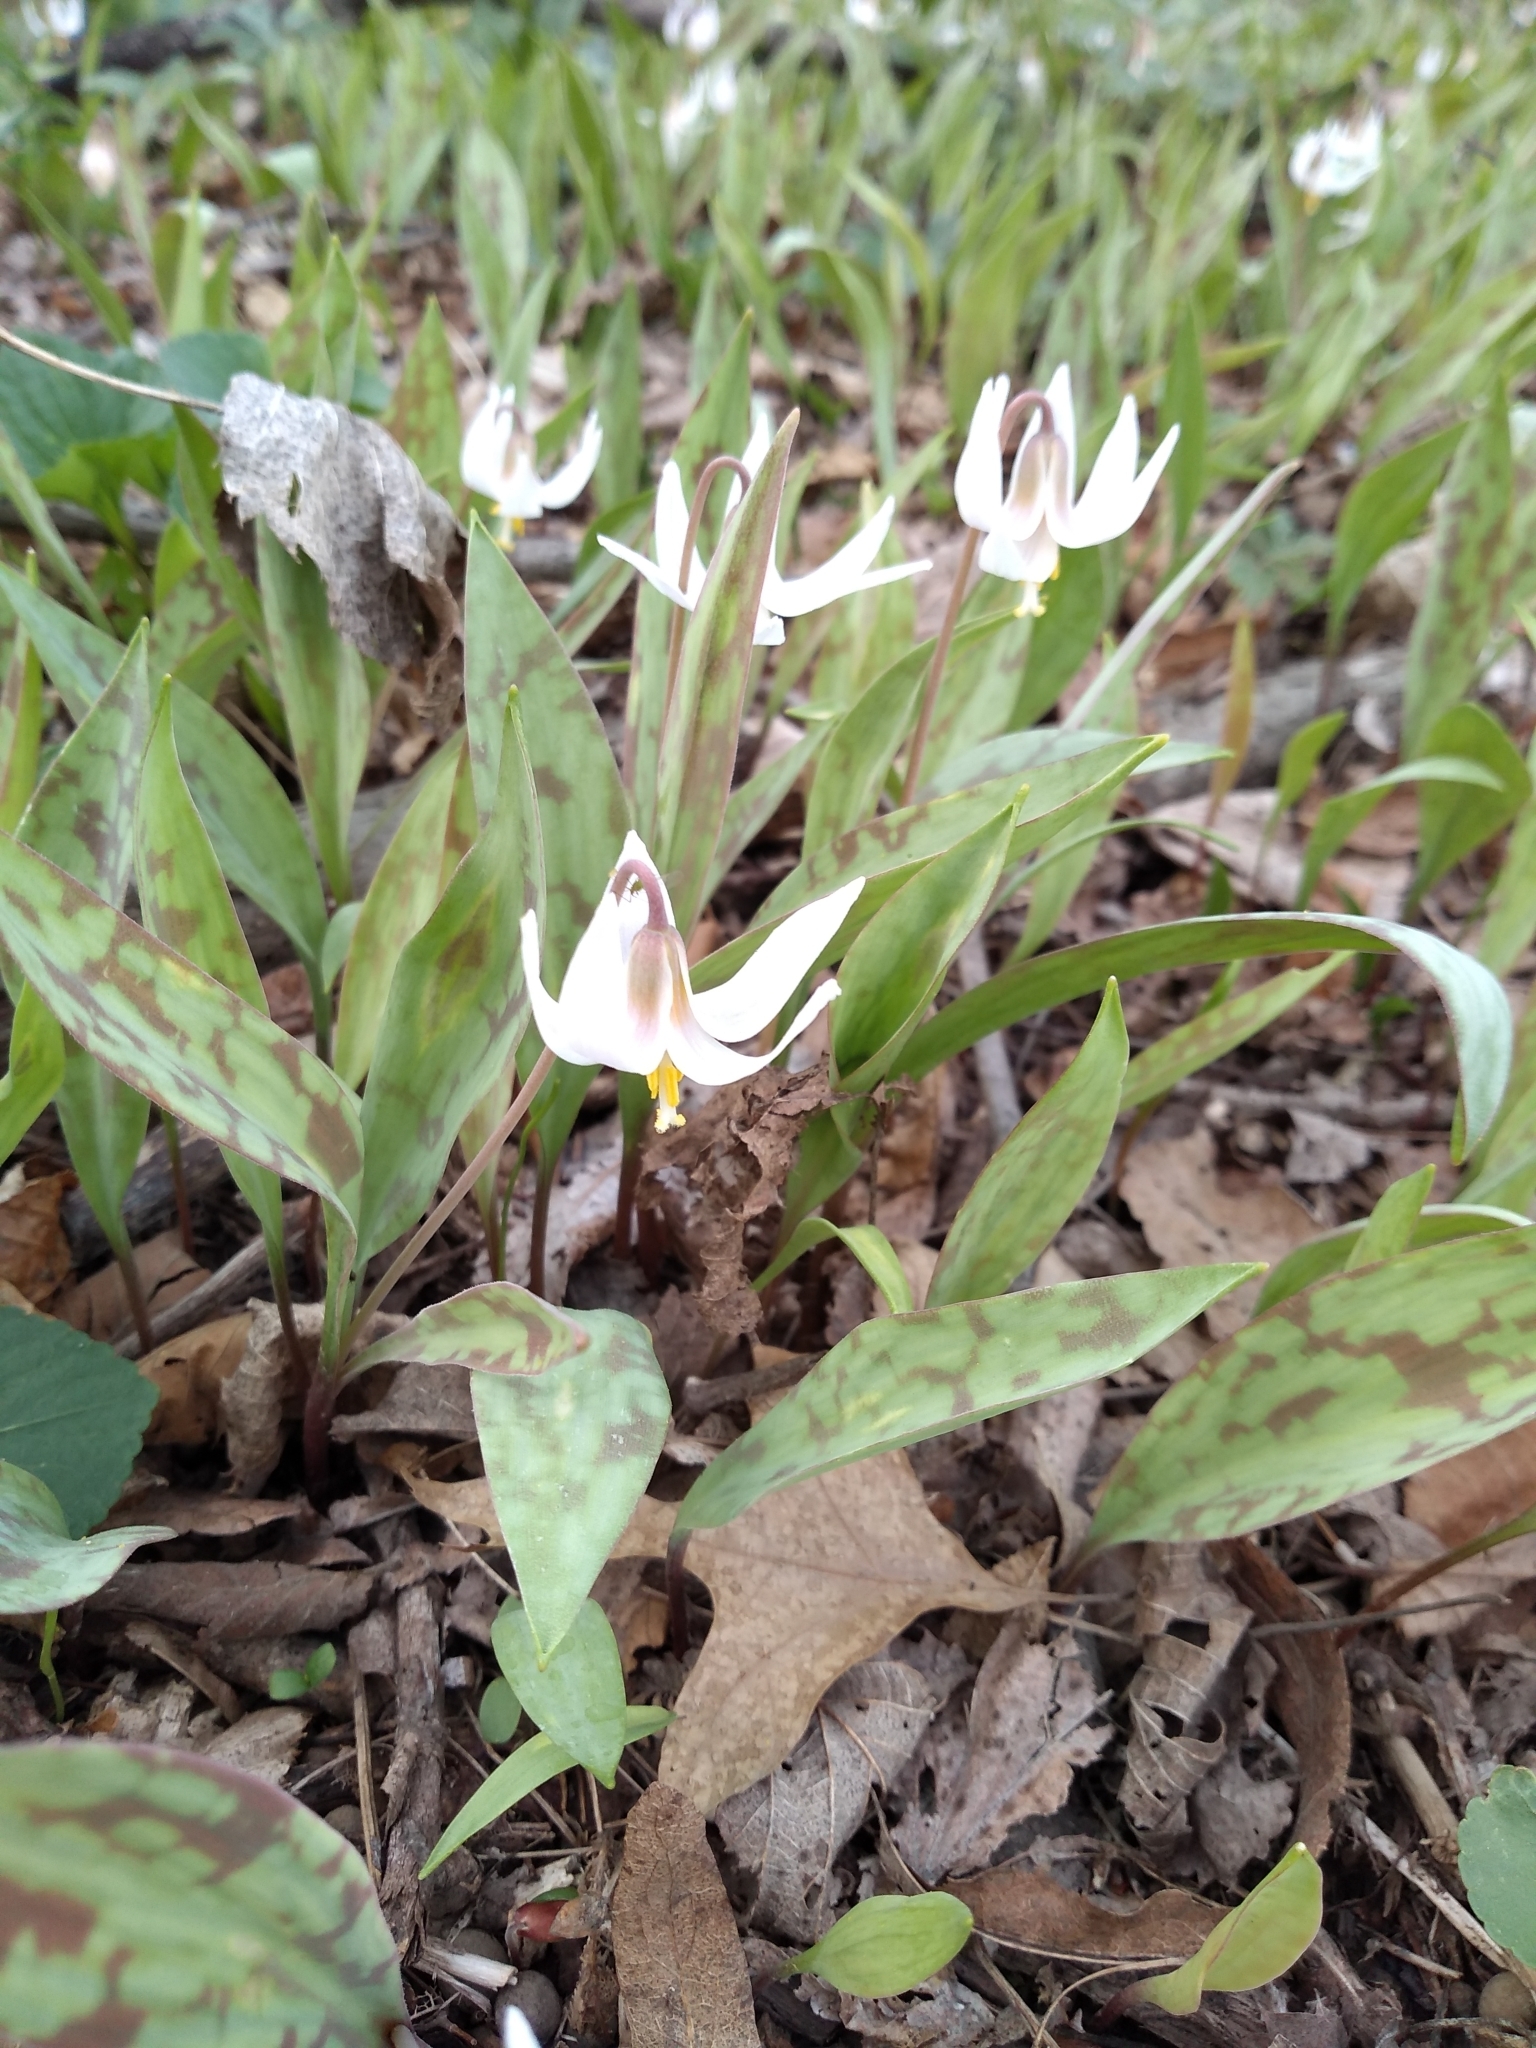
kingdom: Plantae
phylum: Tracheophyta
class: Liliopsida
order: Liliales
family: Liliaceae
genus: Erythronium
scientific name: Erythronium albidum
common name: White trout-lily
